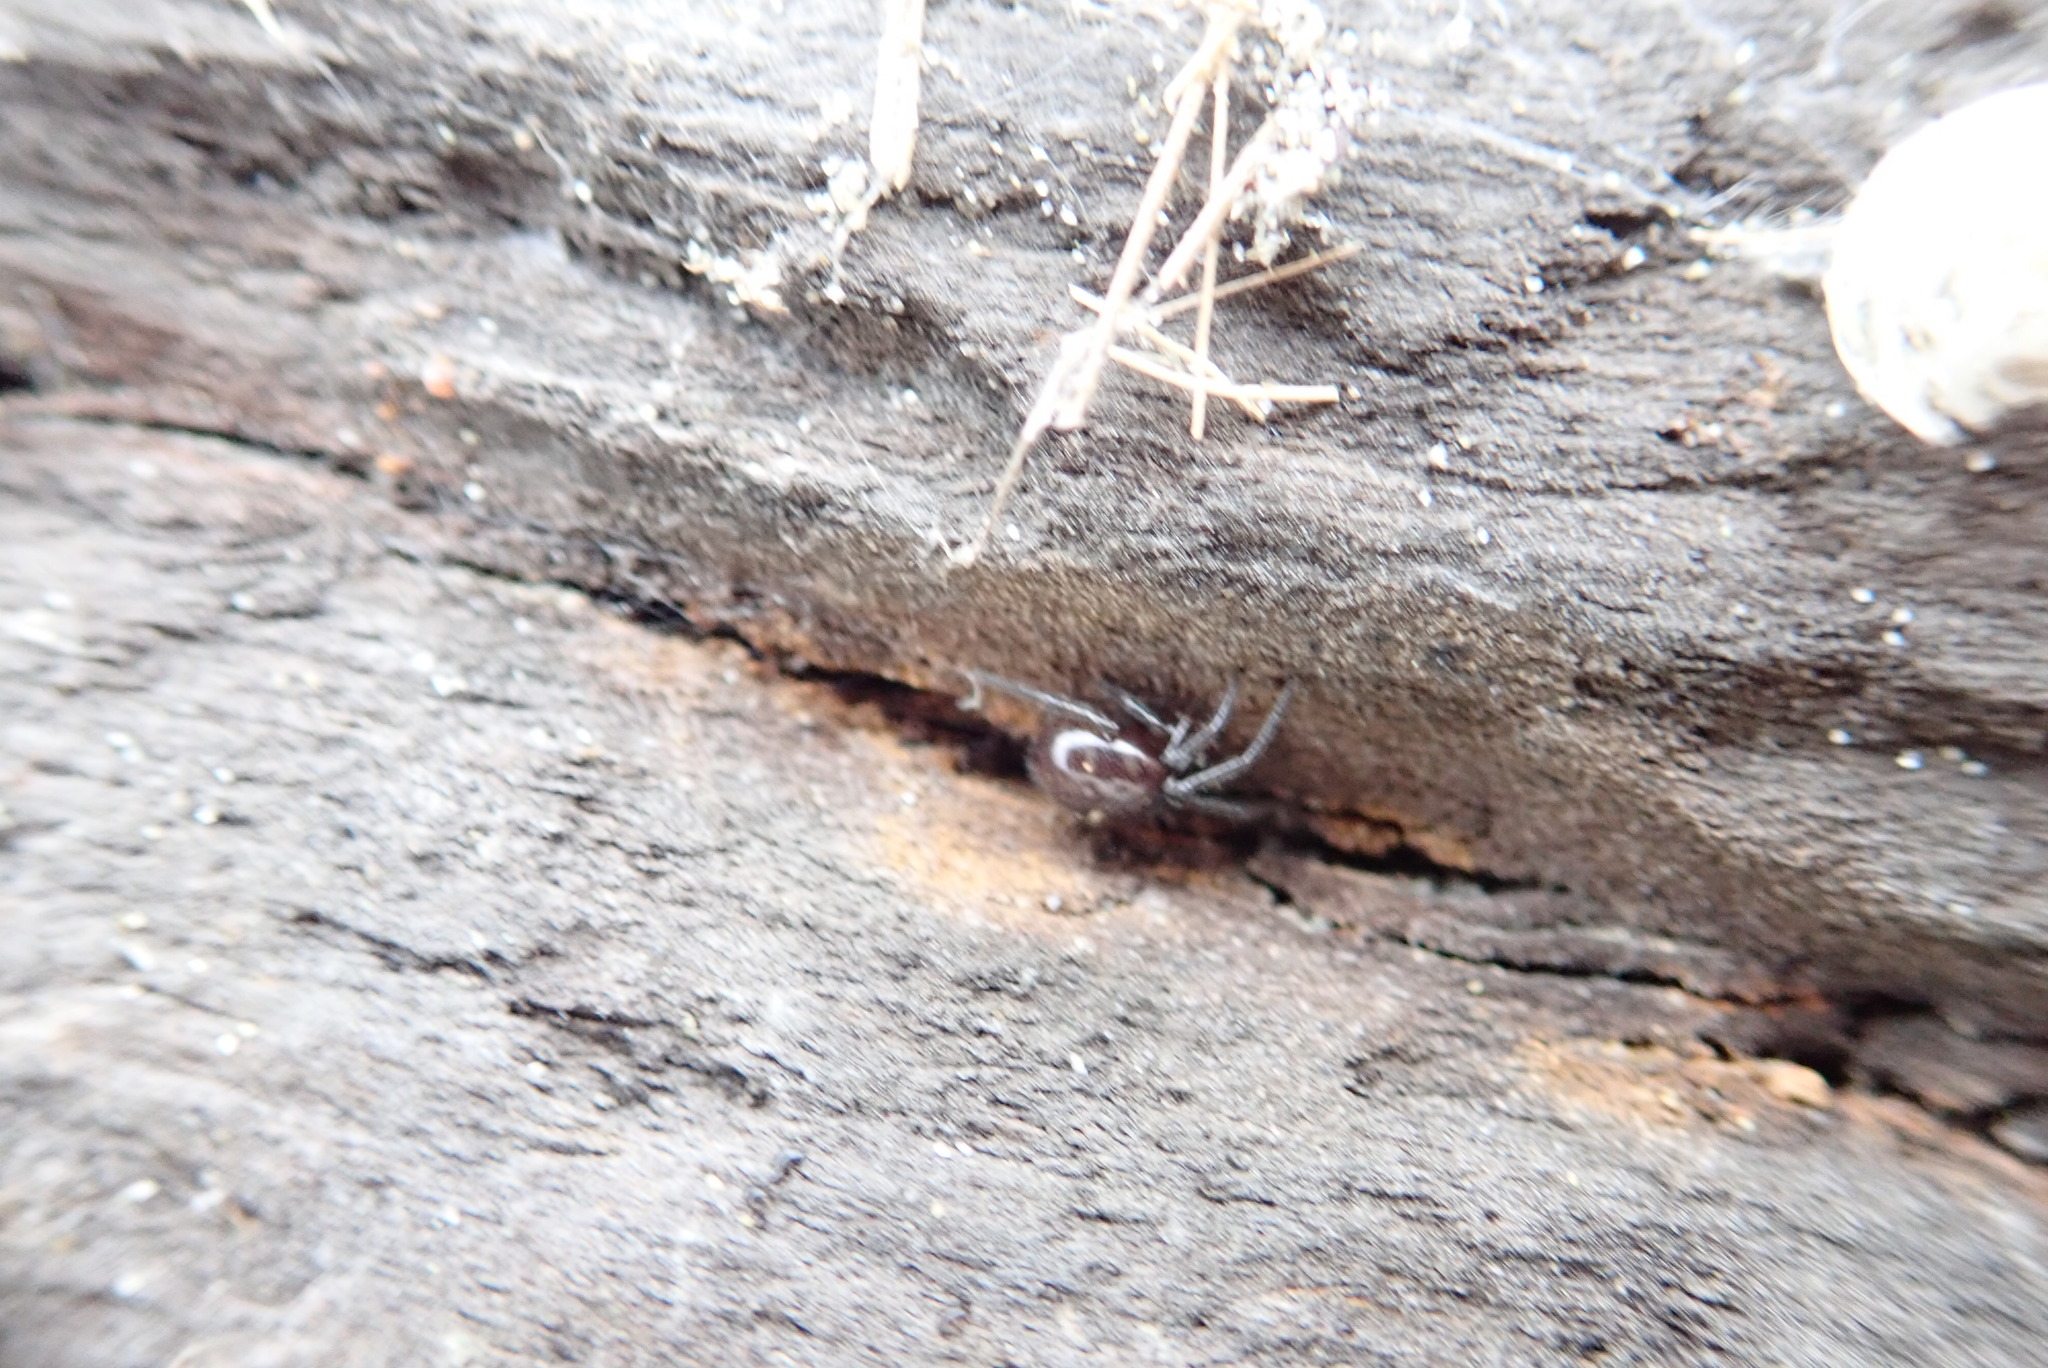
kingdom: Animalia
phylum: Arthropoda
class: Arachnida
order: Araneae
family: Theridiidae
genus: Steatoda
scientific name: Steatoda capensis
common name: Cobweb weaver
